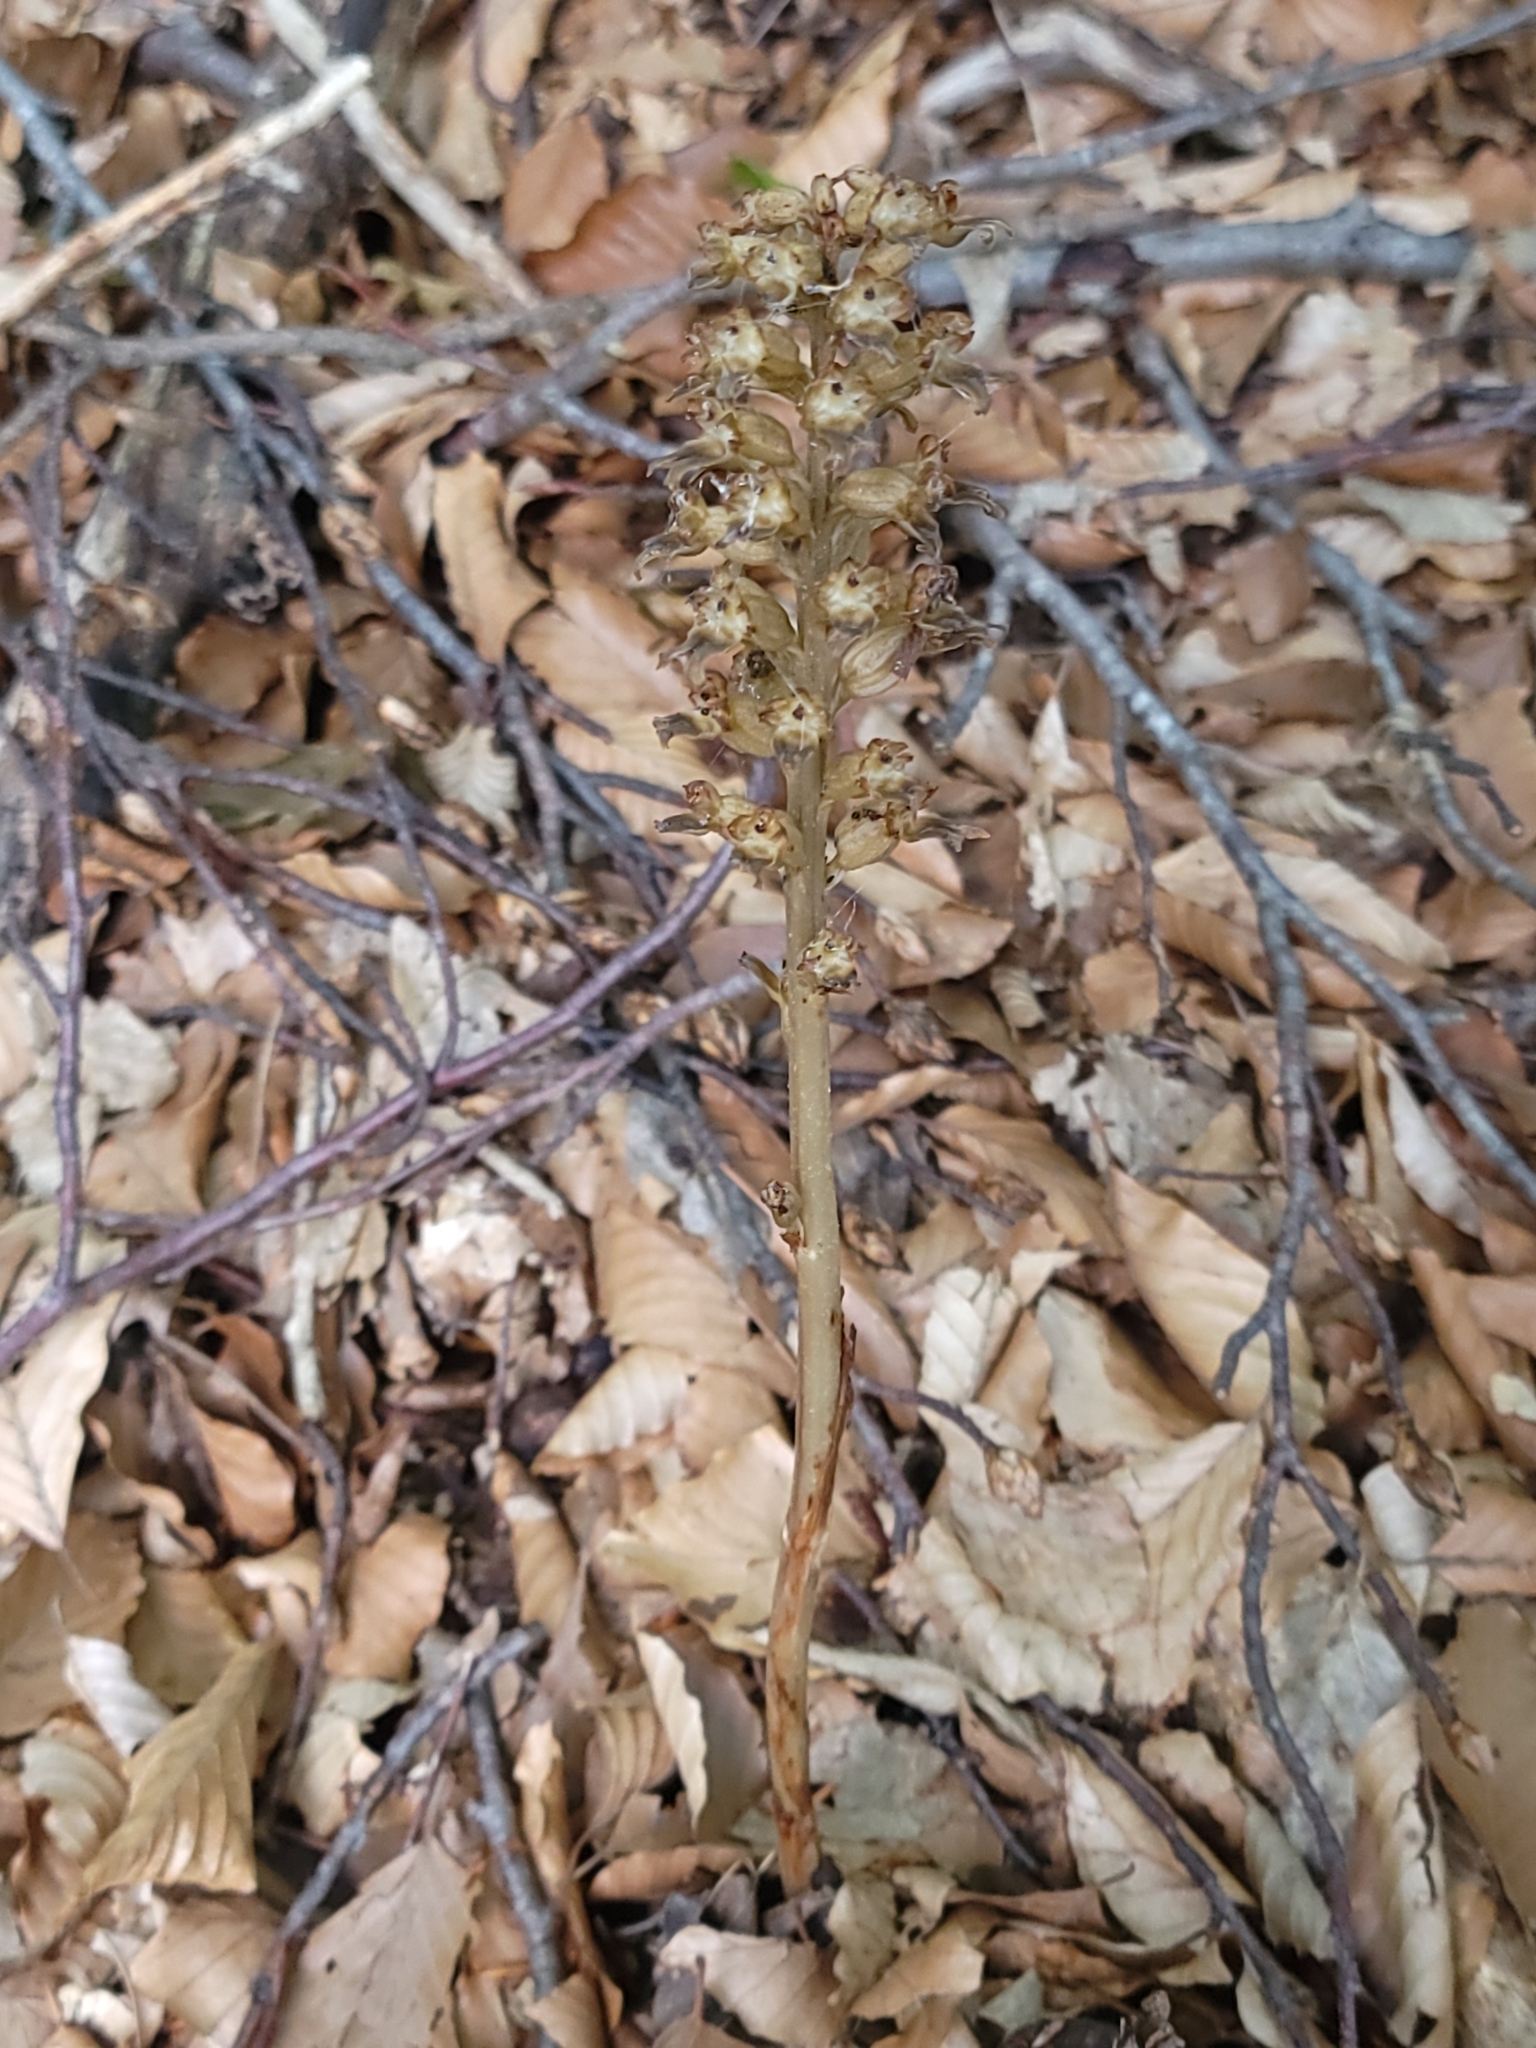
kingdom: Plantae
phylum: Tracheophyta
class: Liliopsida
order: Asparagales
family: Orchidaceae
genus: Neottia
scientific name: Neottia nidus-avis
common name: Bird's-nest orchid
